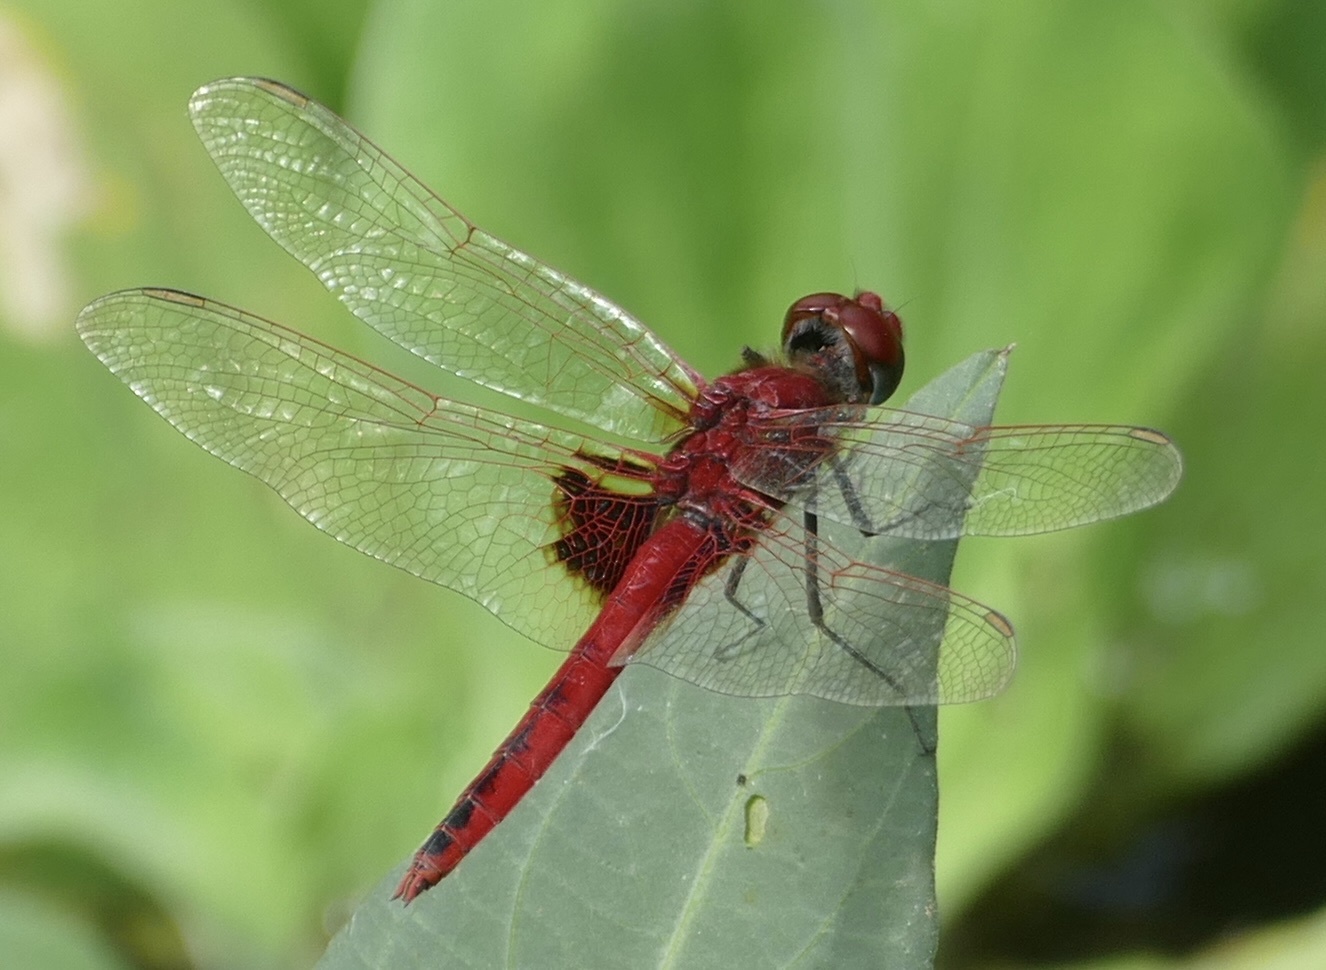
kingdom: Animalia
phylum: Arthropoda
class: Insecta
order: Odonata
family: Libellulidae
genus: Urothemis
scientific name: Urothemis assignata
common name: Red basker
